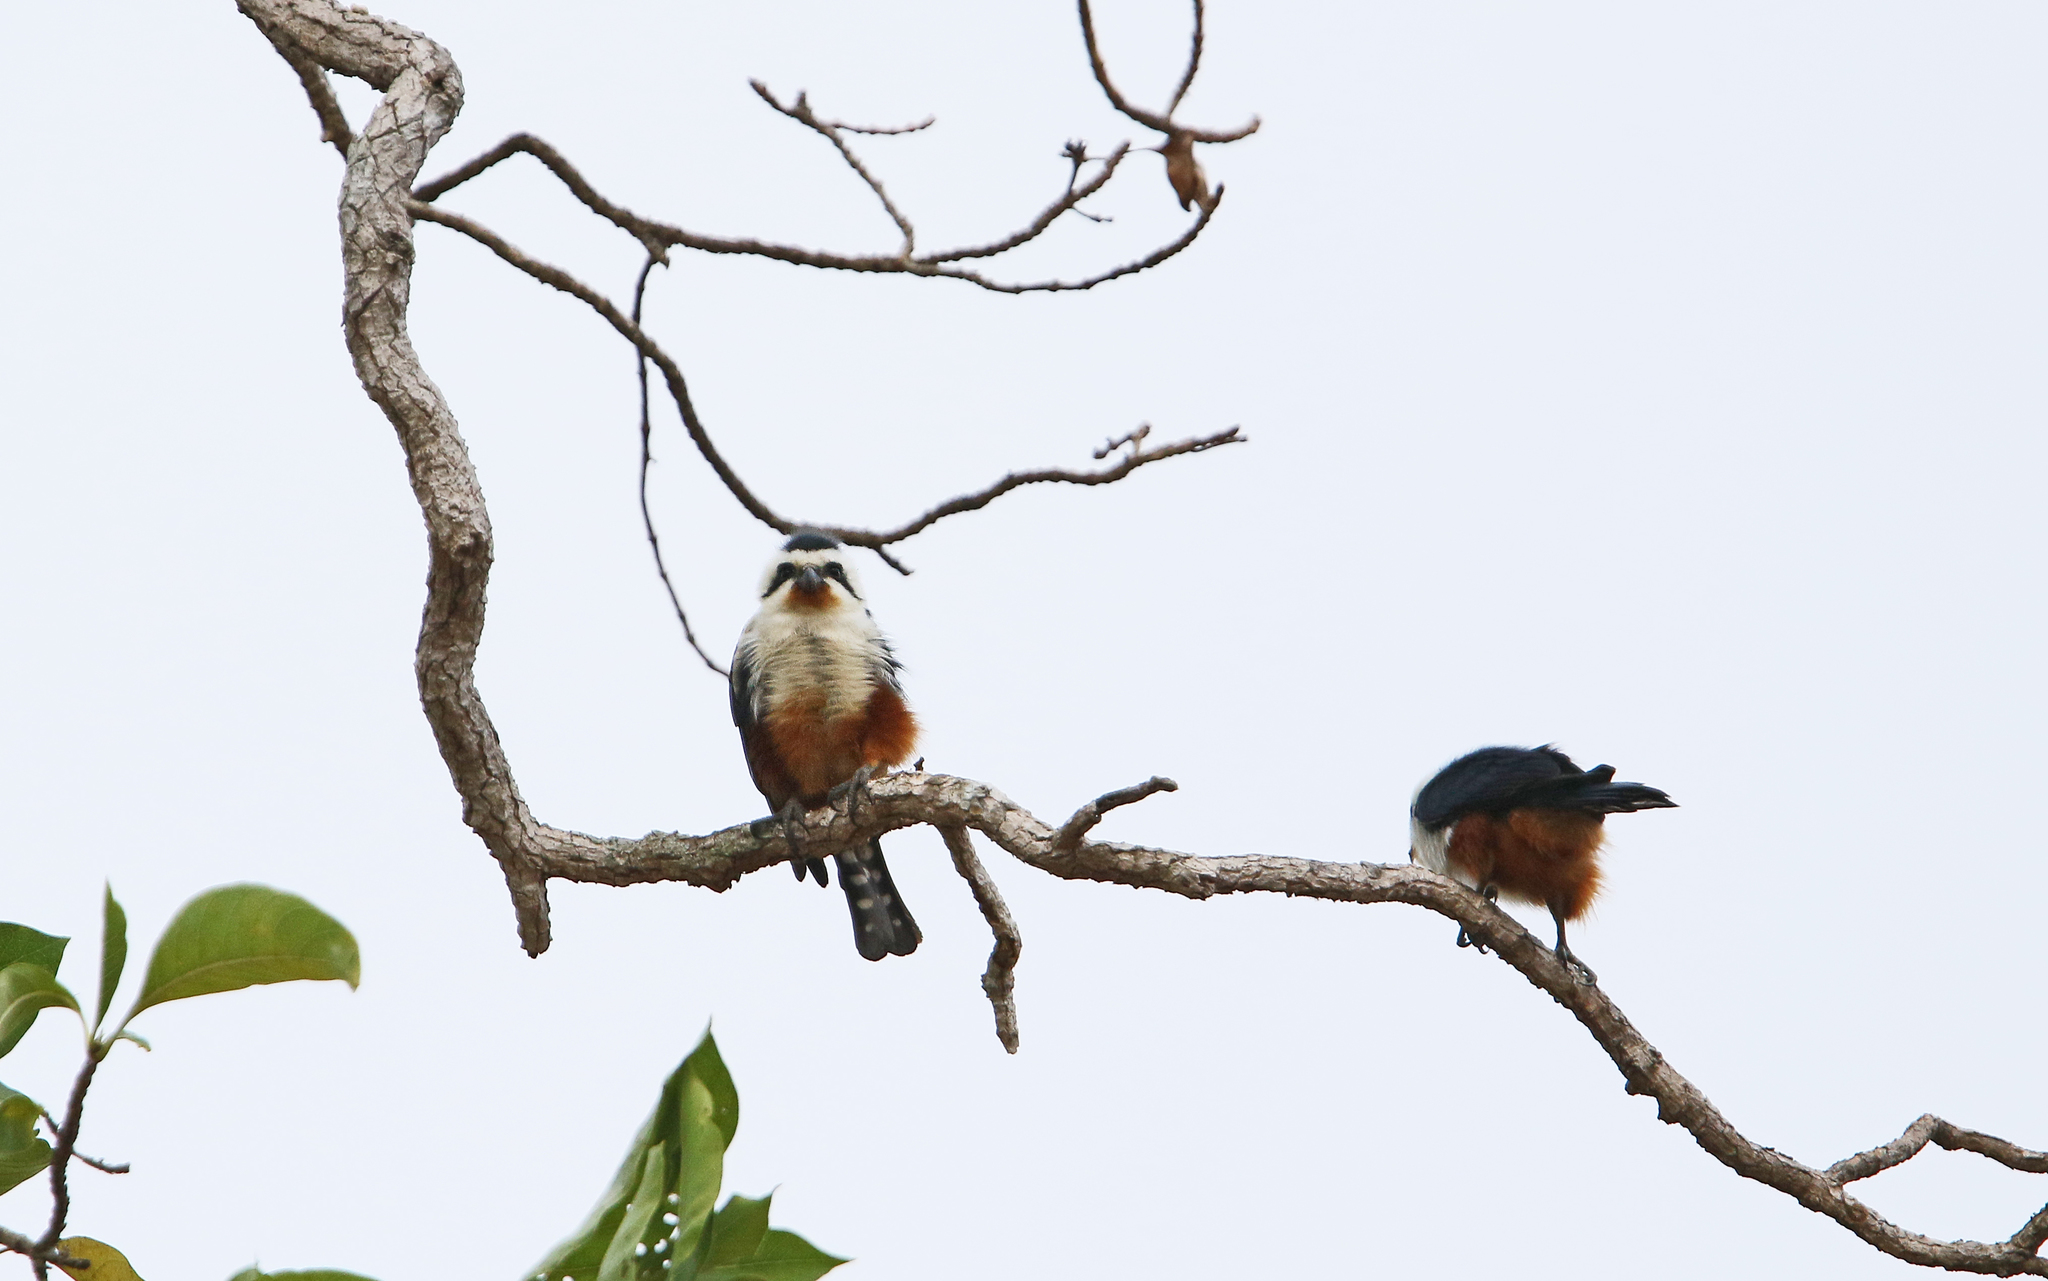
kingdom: Animalia
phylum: Chordata
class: Aves
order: Falconiformes
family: Falconidae
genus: Microhierax
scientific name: Microhierax caerulescens
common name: Collared falconet
